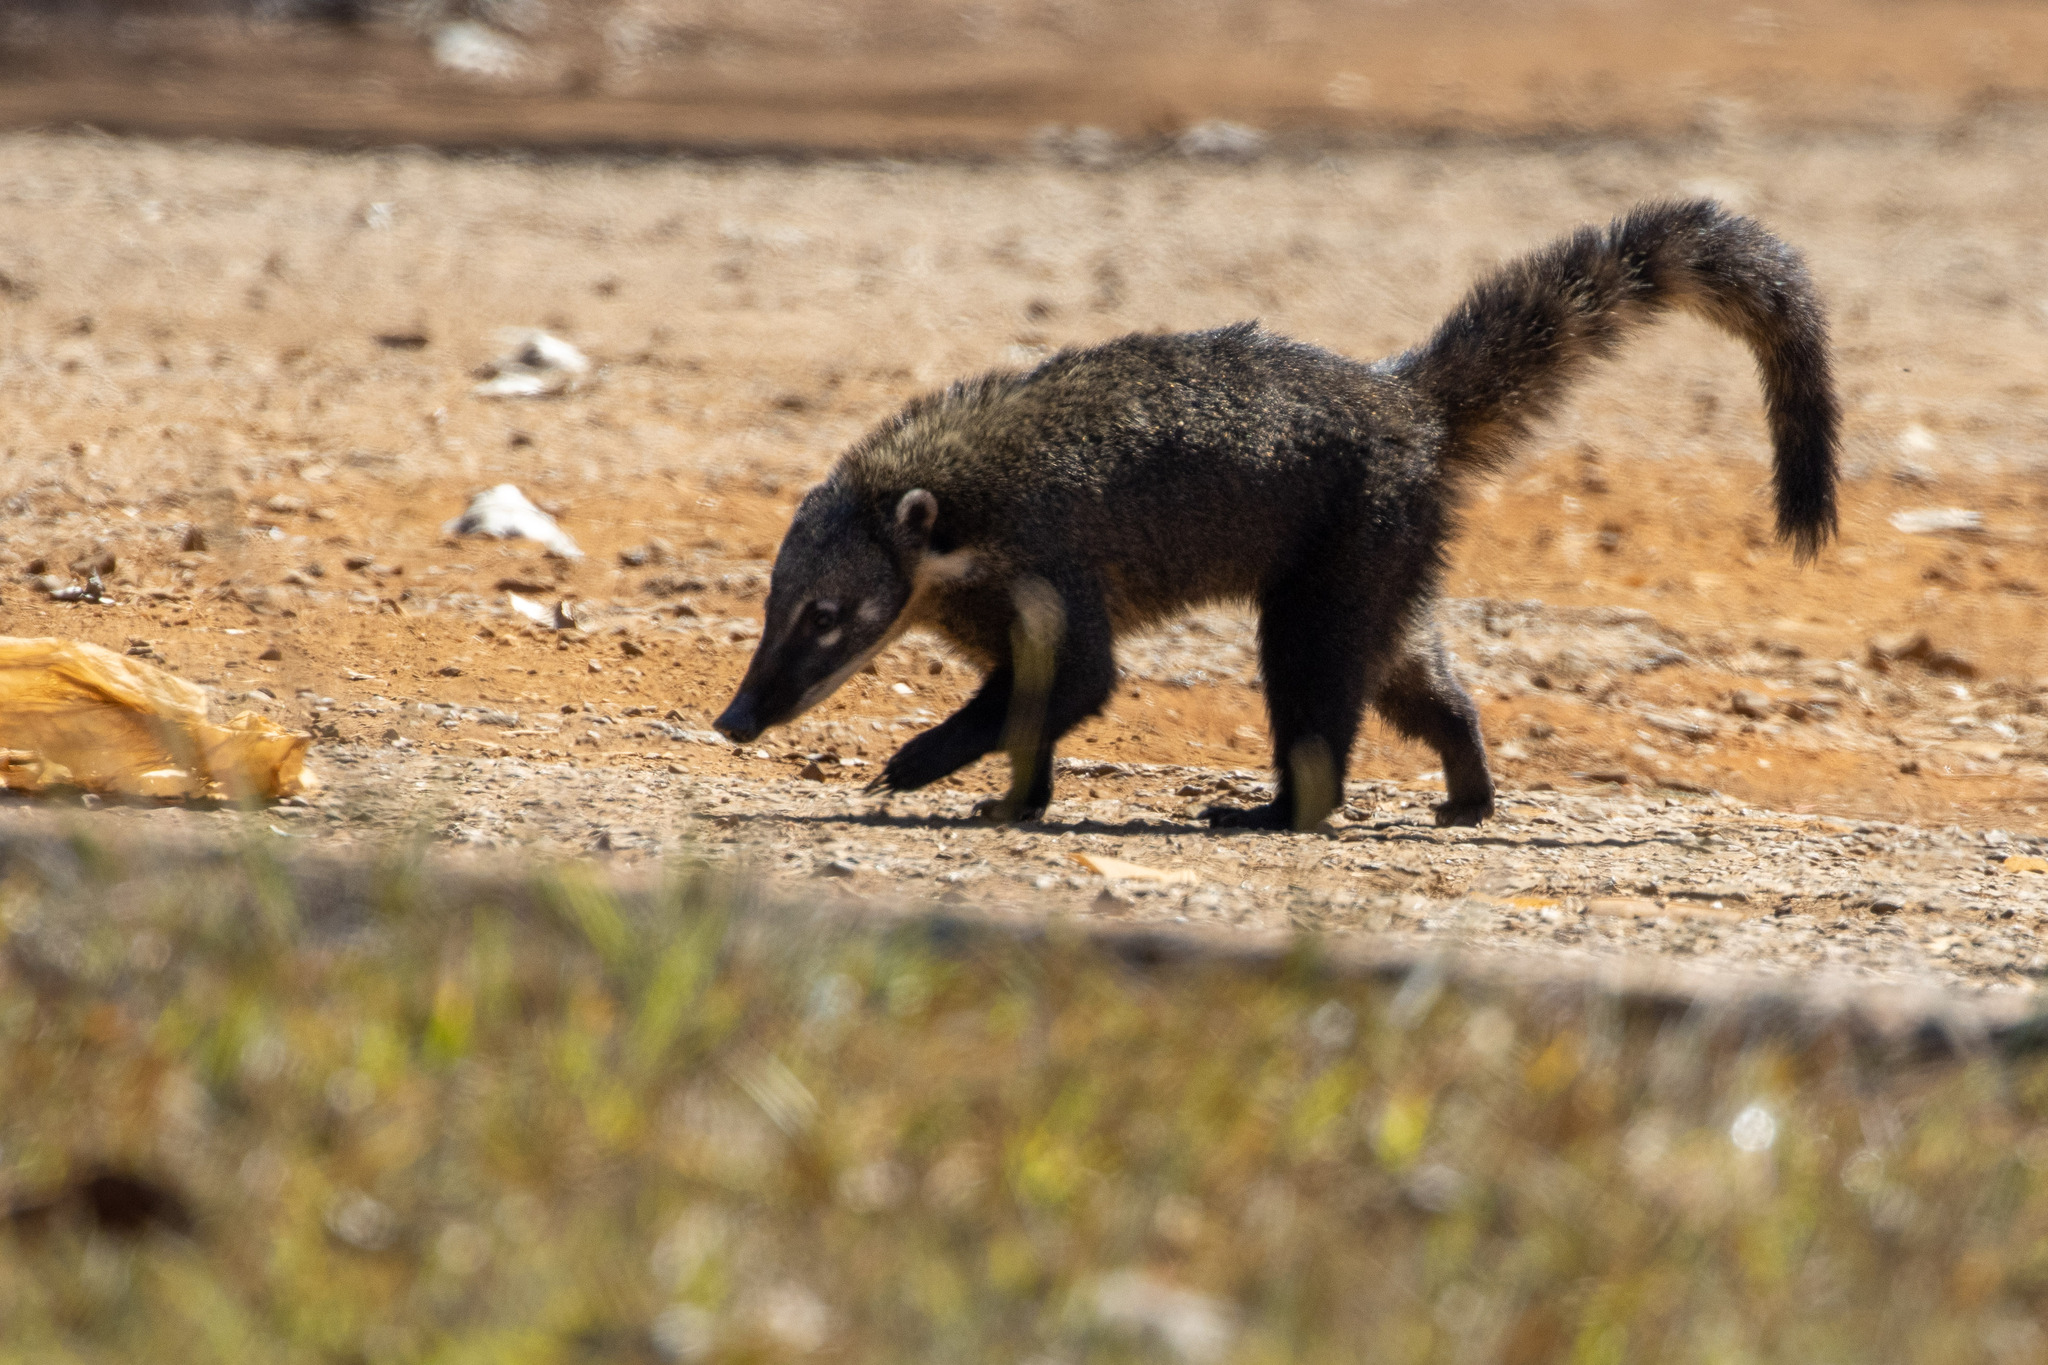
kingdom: Animalia
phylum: Chordata
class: Mammalia
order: Carnivora
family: Procyonidae
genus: Nasua
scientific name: Nasua nasua
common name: South american coati
